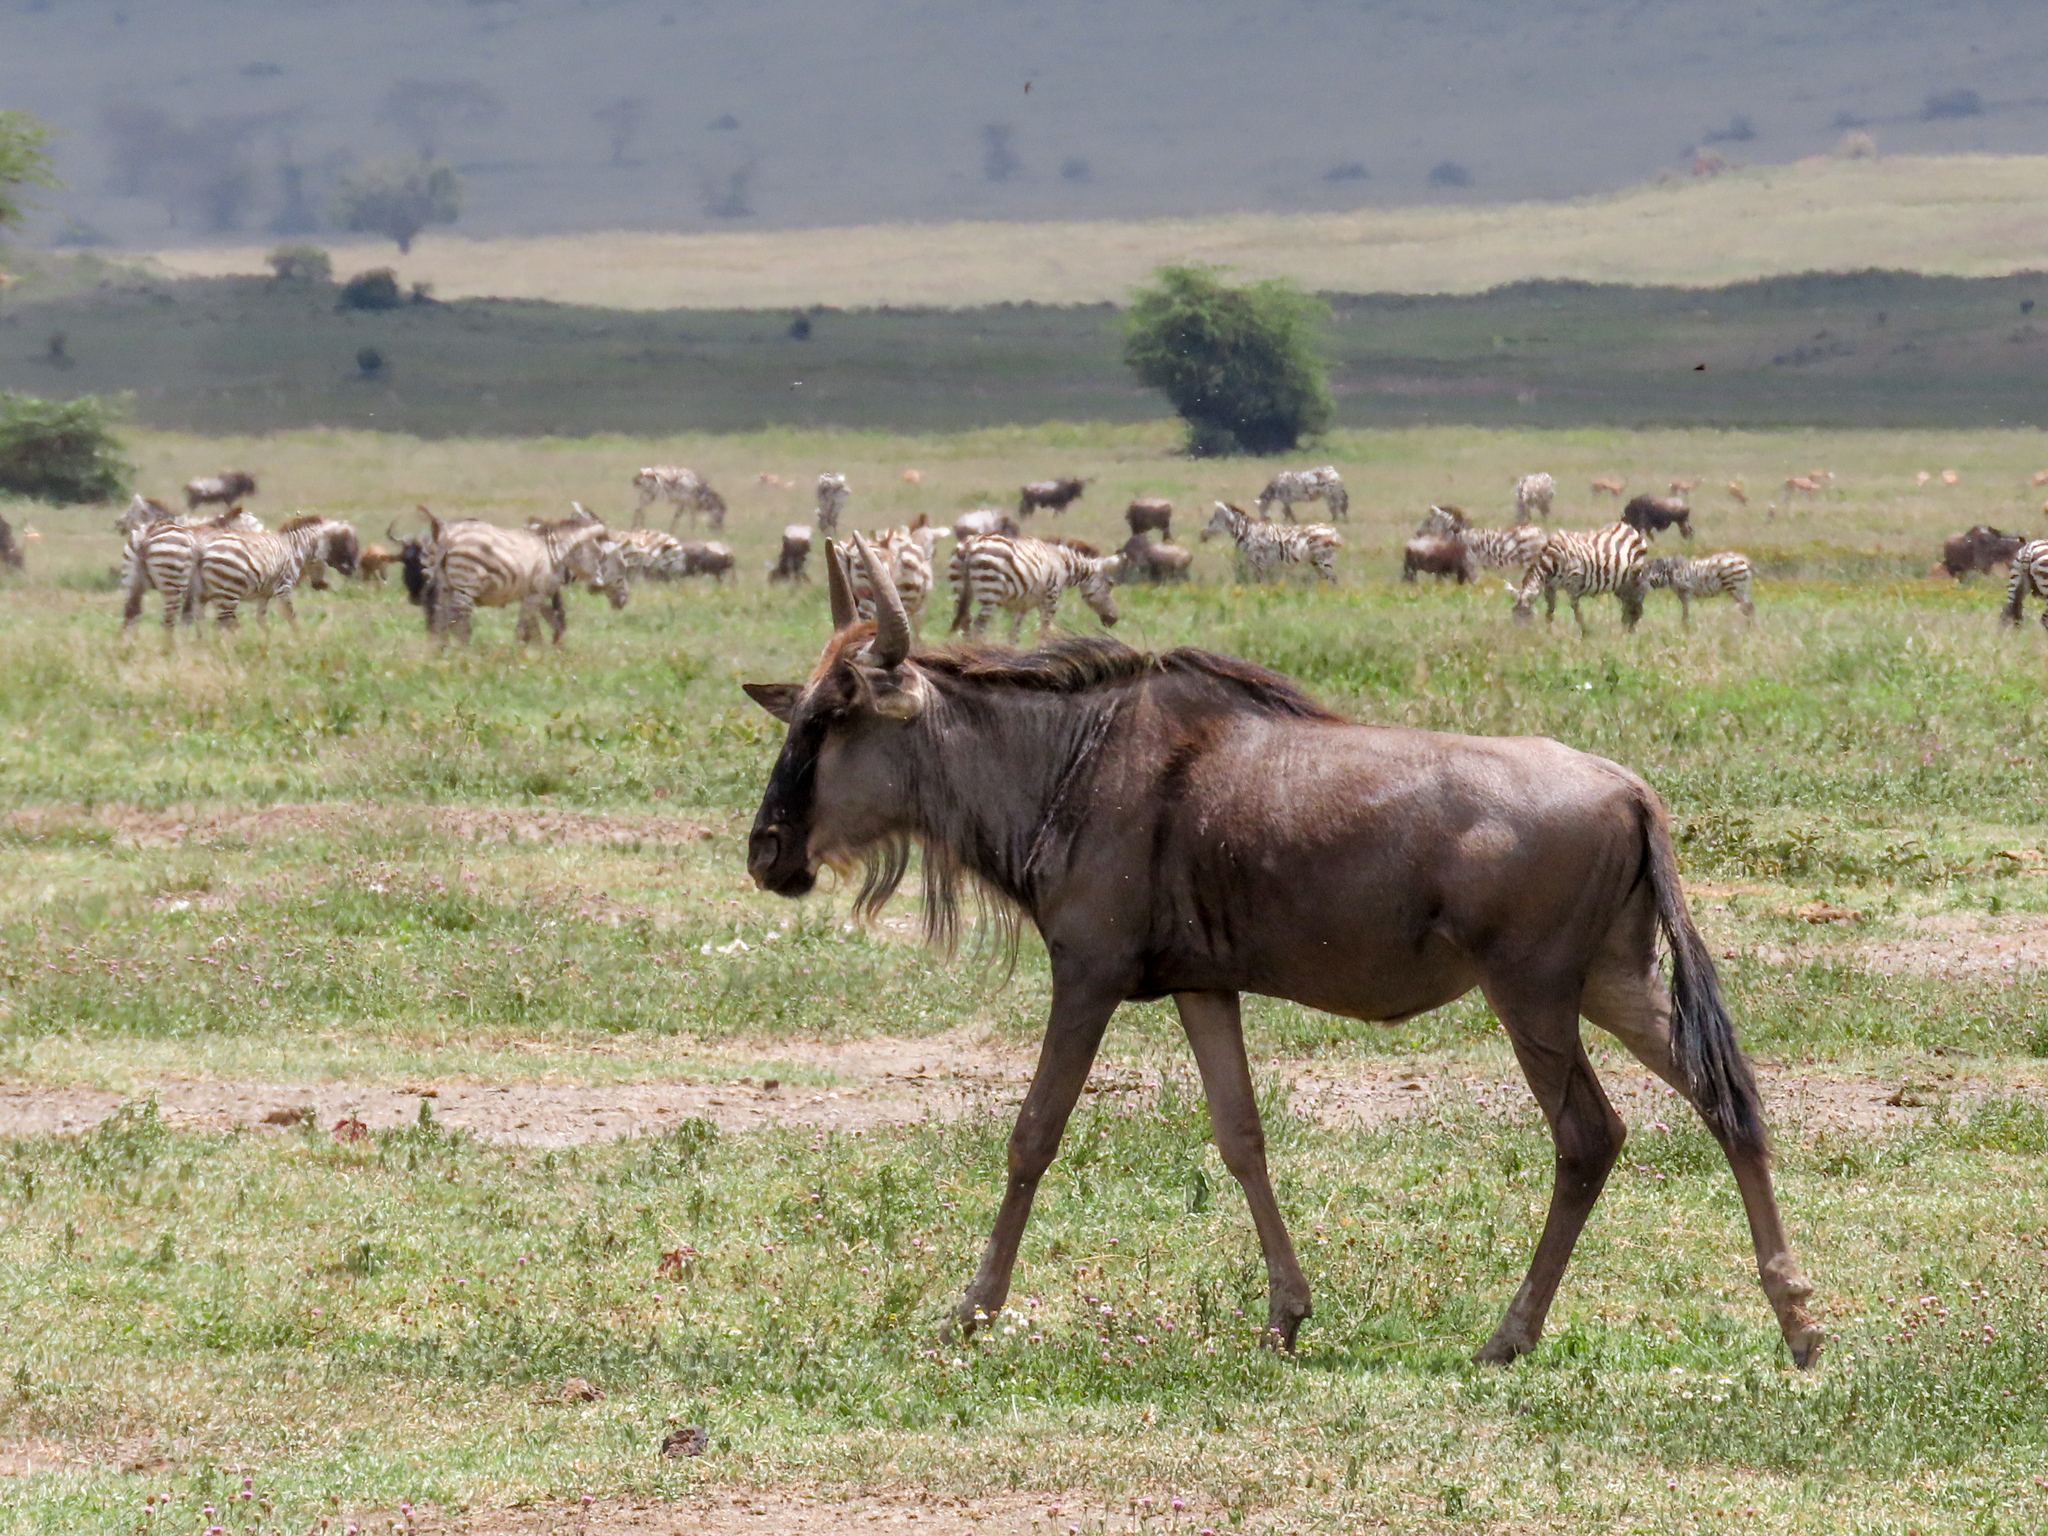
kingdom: Animalia
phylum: Chordata
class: Mammalia
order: Artiodactyla
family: Bovidae
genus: Connochaetes
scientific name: Connochaetes taurinus
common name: Blue wildebeest
